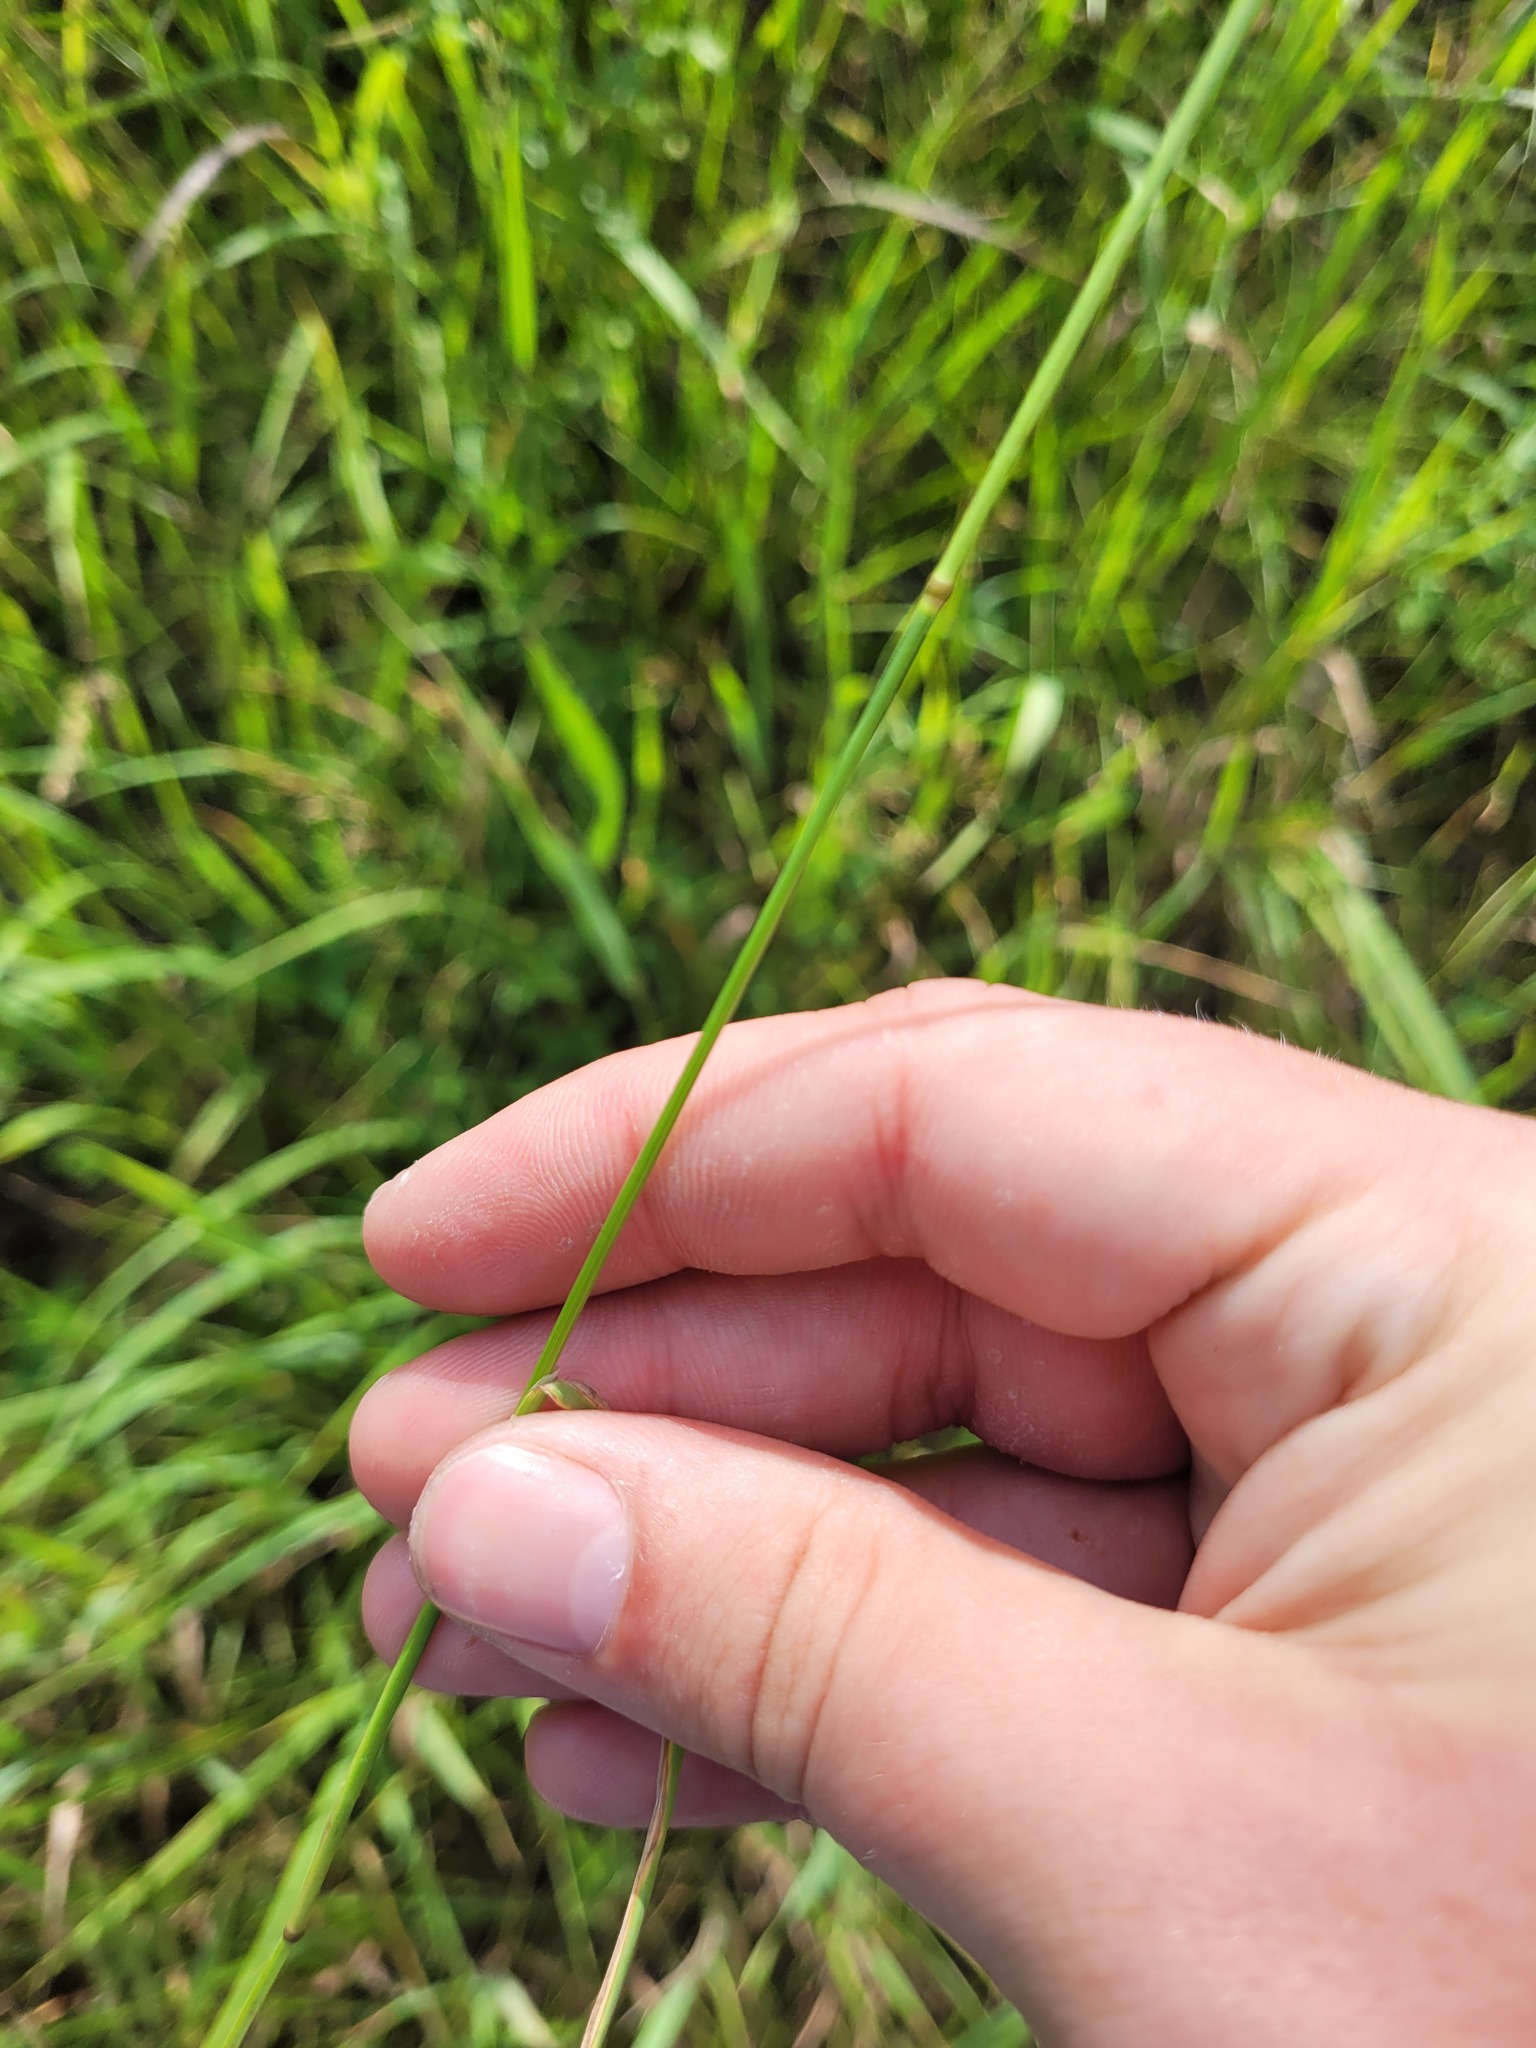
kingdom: Plantae
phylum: Tracheophyta
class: Liliopsida
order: Poales
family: Poaceae
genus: Poa
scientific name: Poa palustris
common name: Swamp meadow-grass
